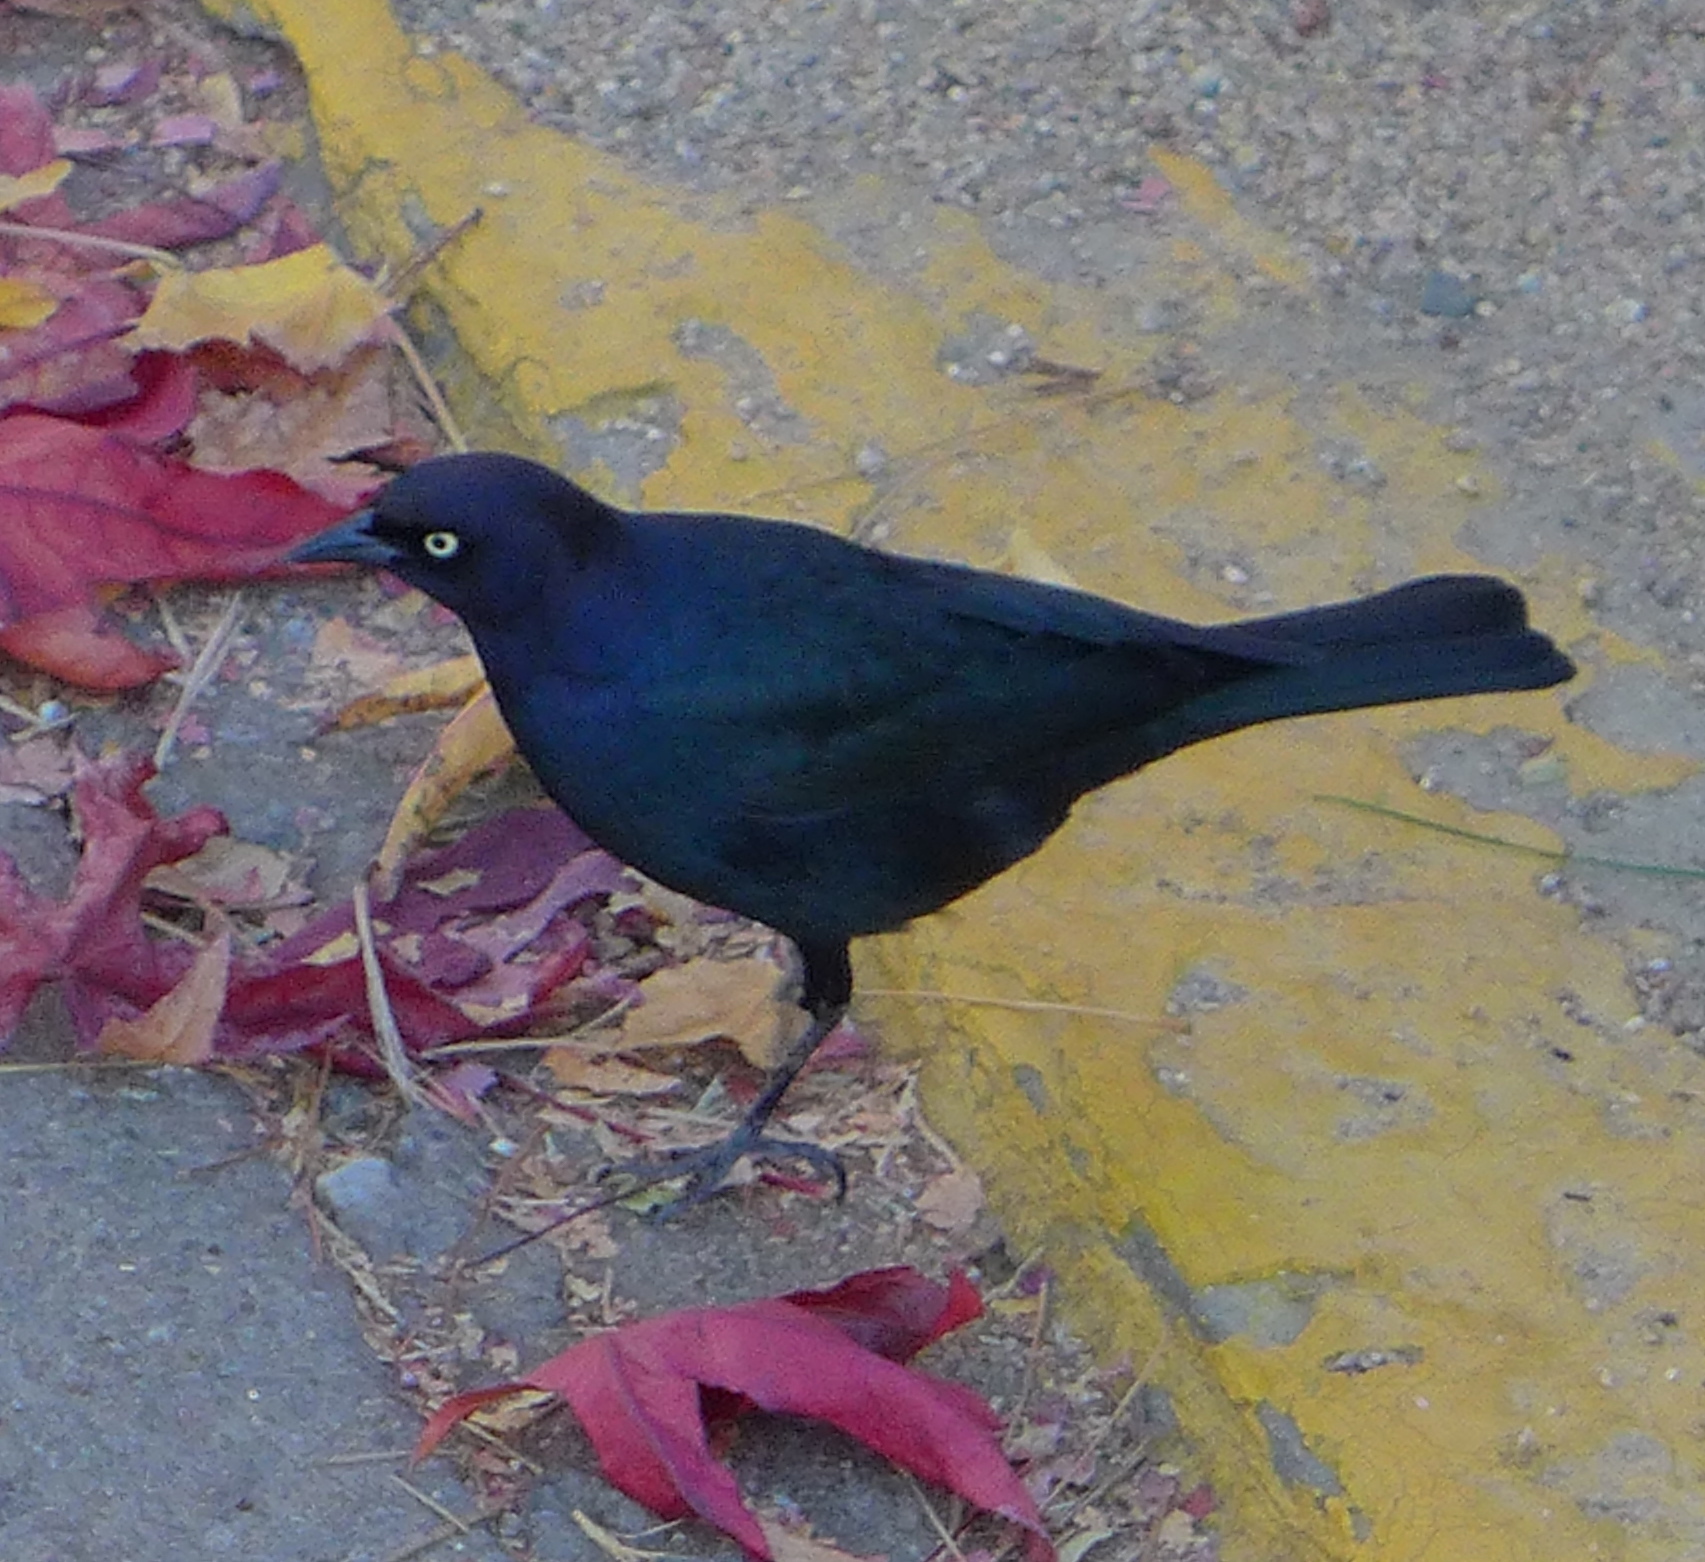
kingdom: Animalia
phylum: Chordata
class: Aves
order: Passeriformes
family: Icteridae
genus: Euphagus
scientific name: Euphagus cyanocephalus
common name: Brewer's blackbird
